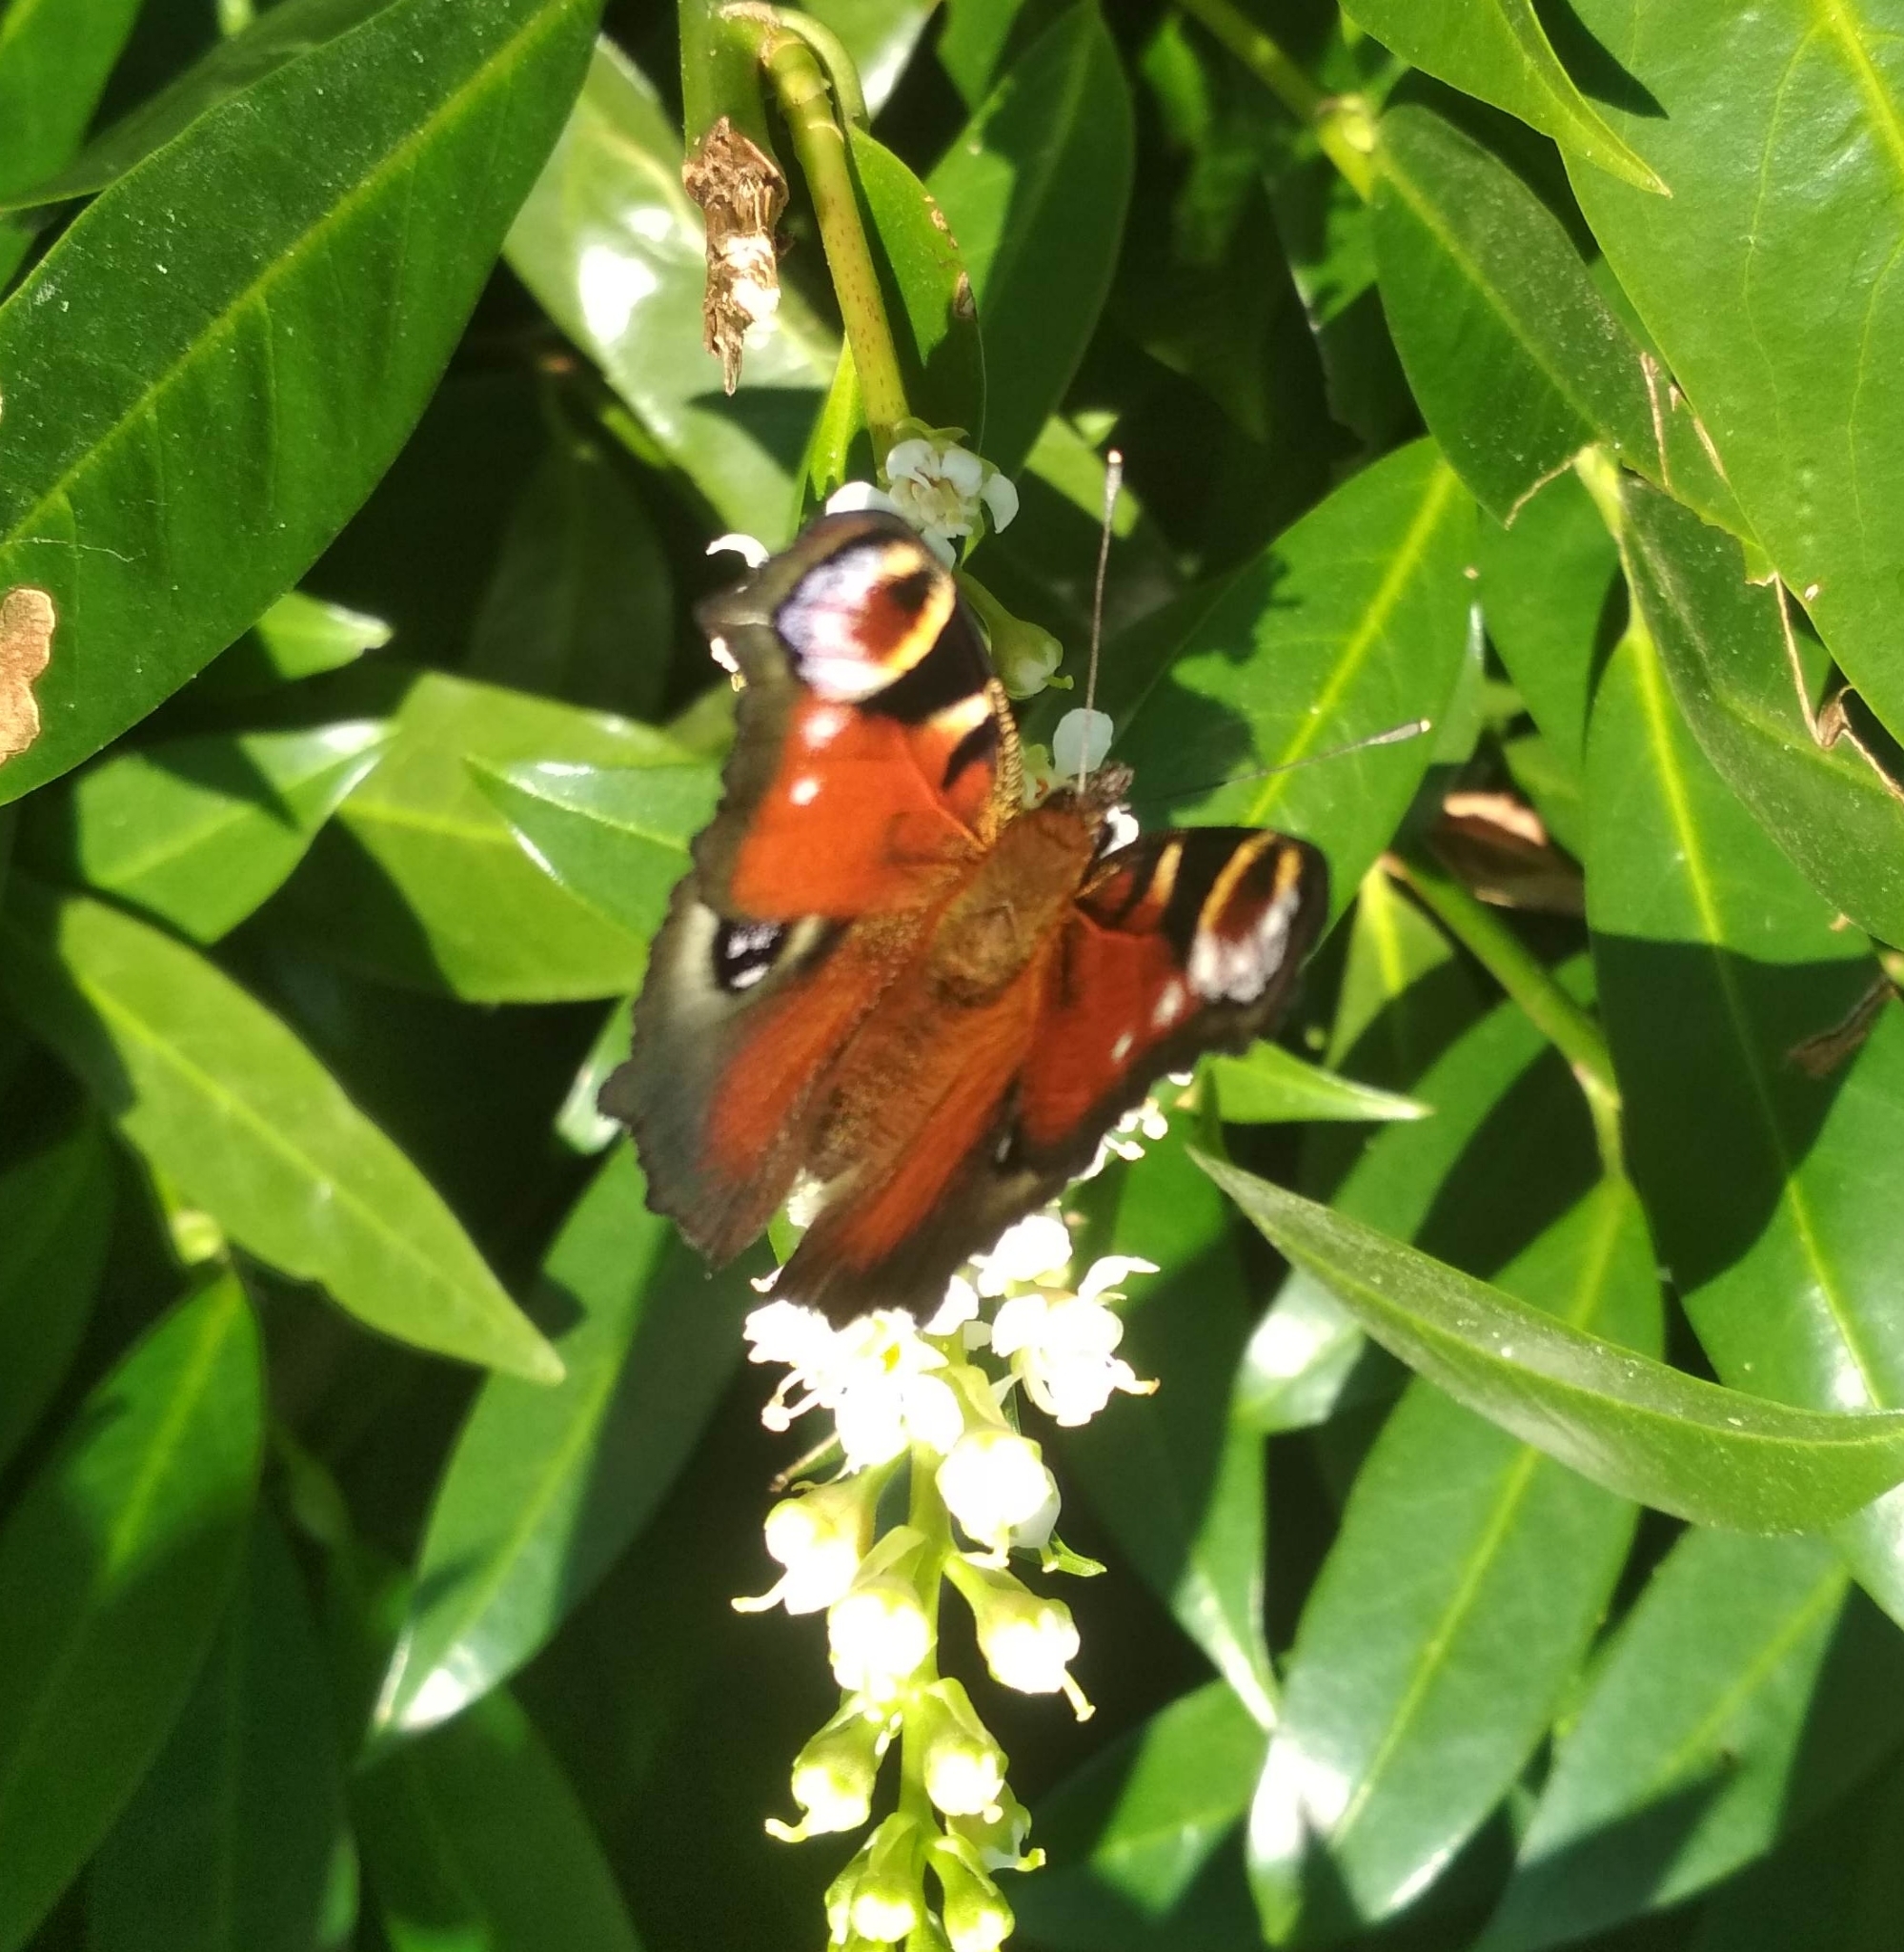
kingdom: Animalia
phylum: Arthropoda
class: Insecta
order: Lepidoptera
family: Nymphalidae
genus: Aglais
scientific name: Aglais io
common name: Peacock
